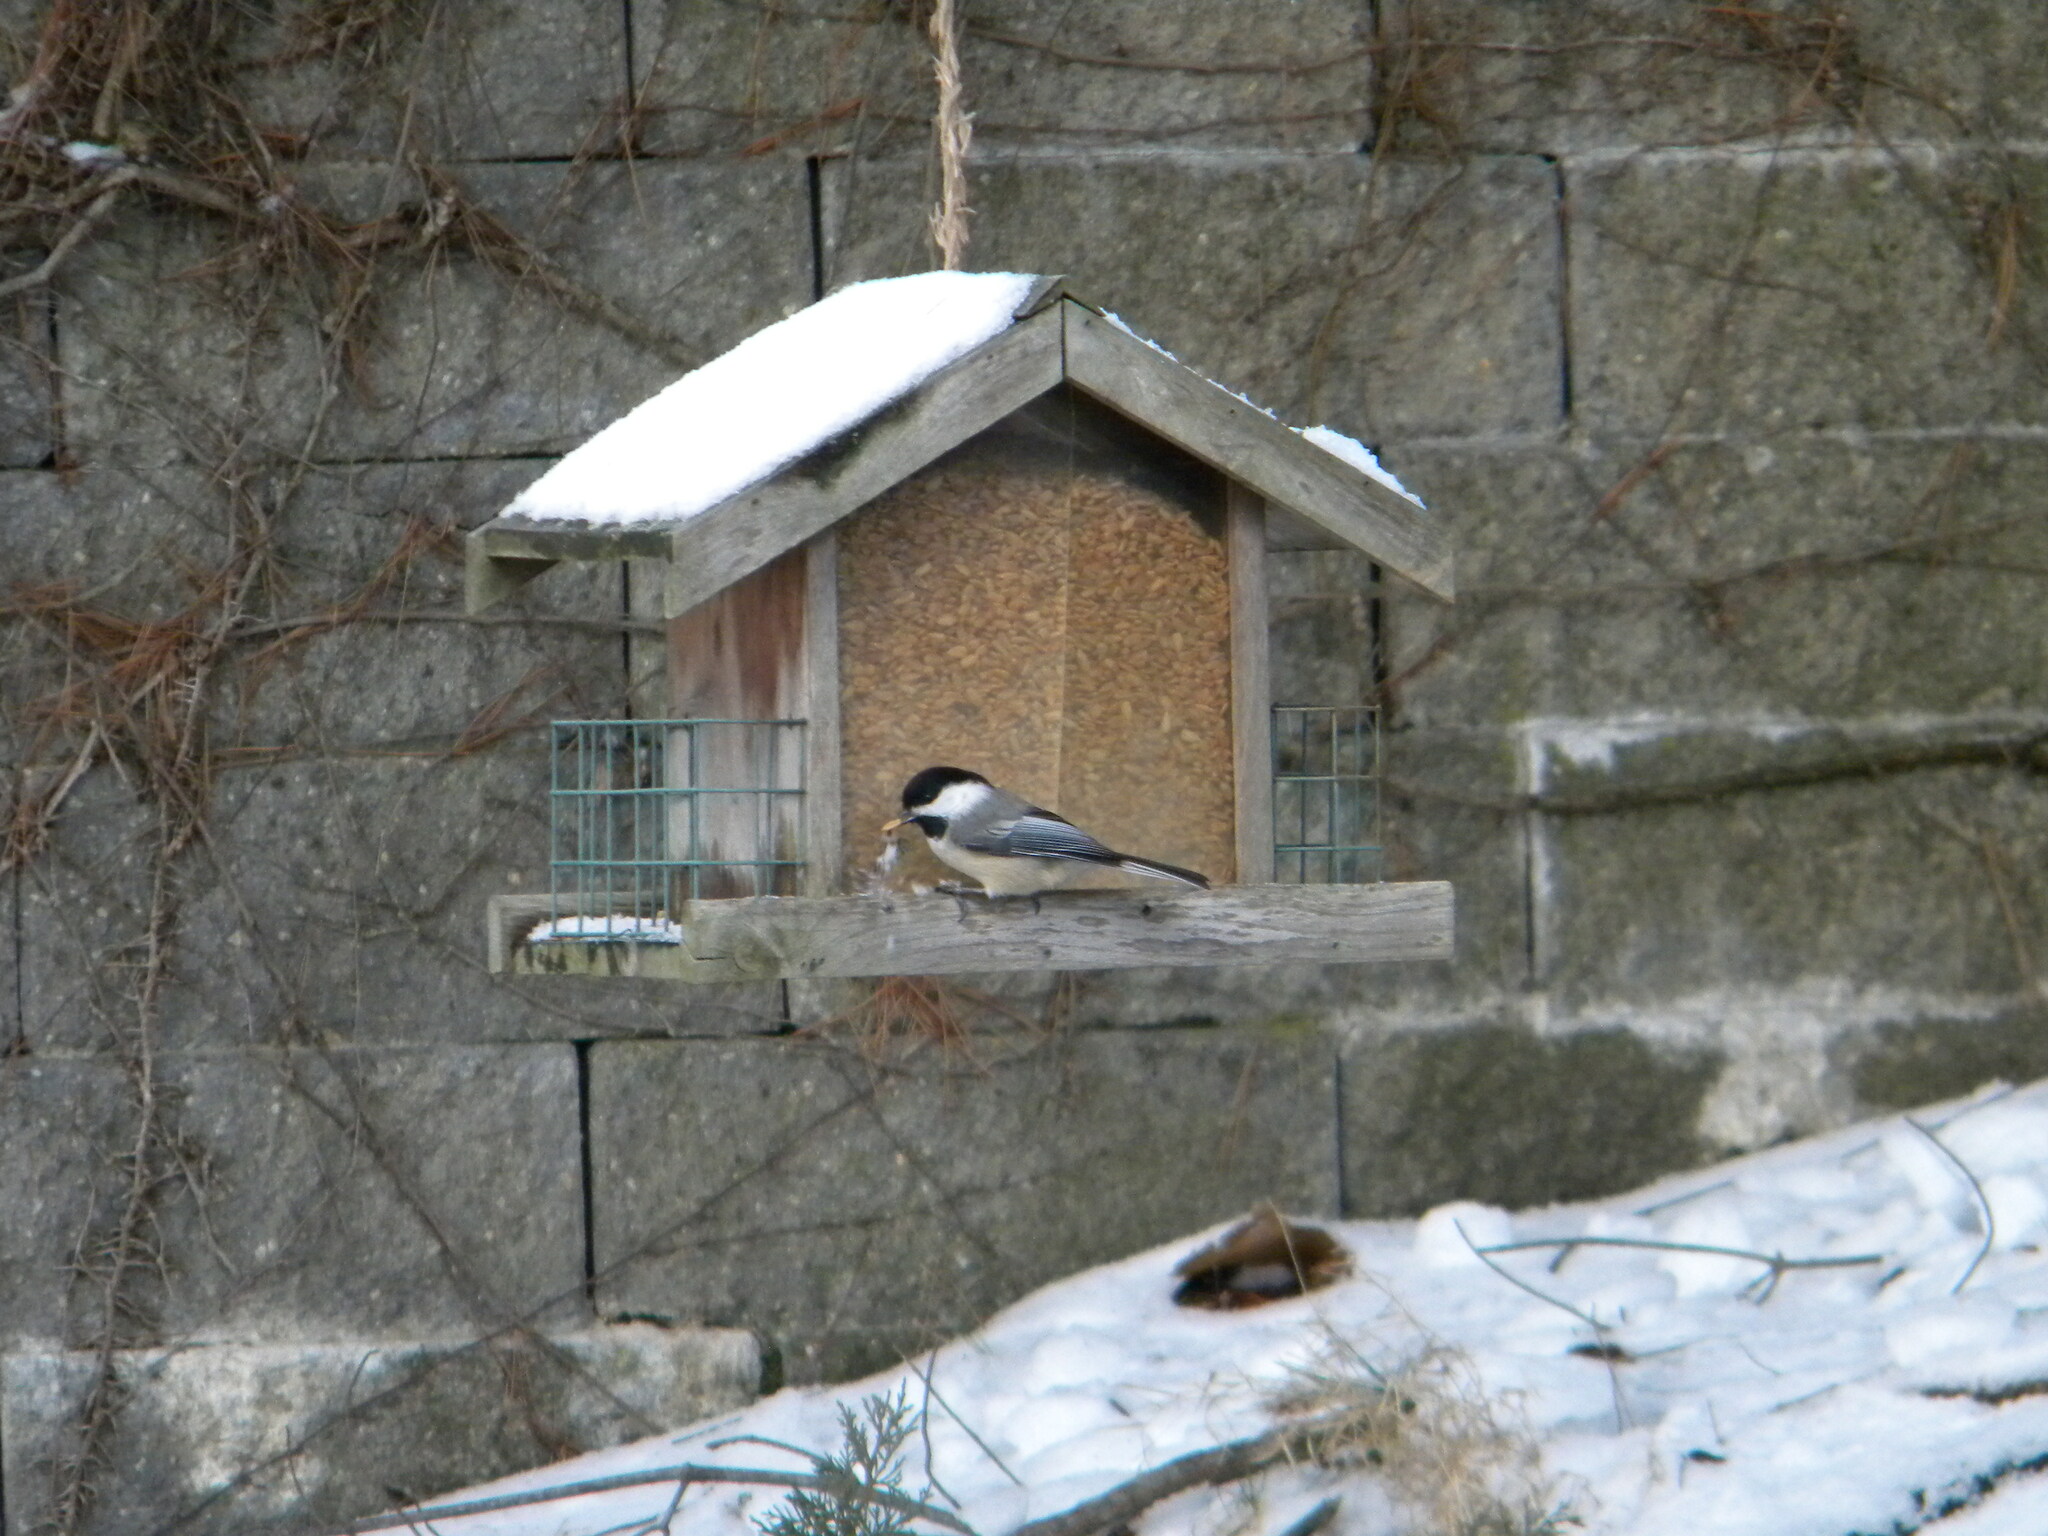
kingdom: Animalia
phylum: Chordata
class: Aves
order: Passeriformes
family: Paridae
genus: Poecile
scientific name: Poecile atricapillus
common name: Black-capped chickadee
